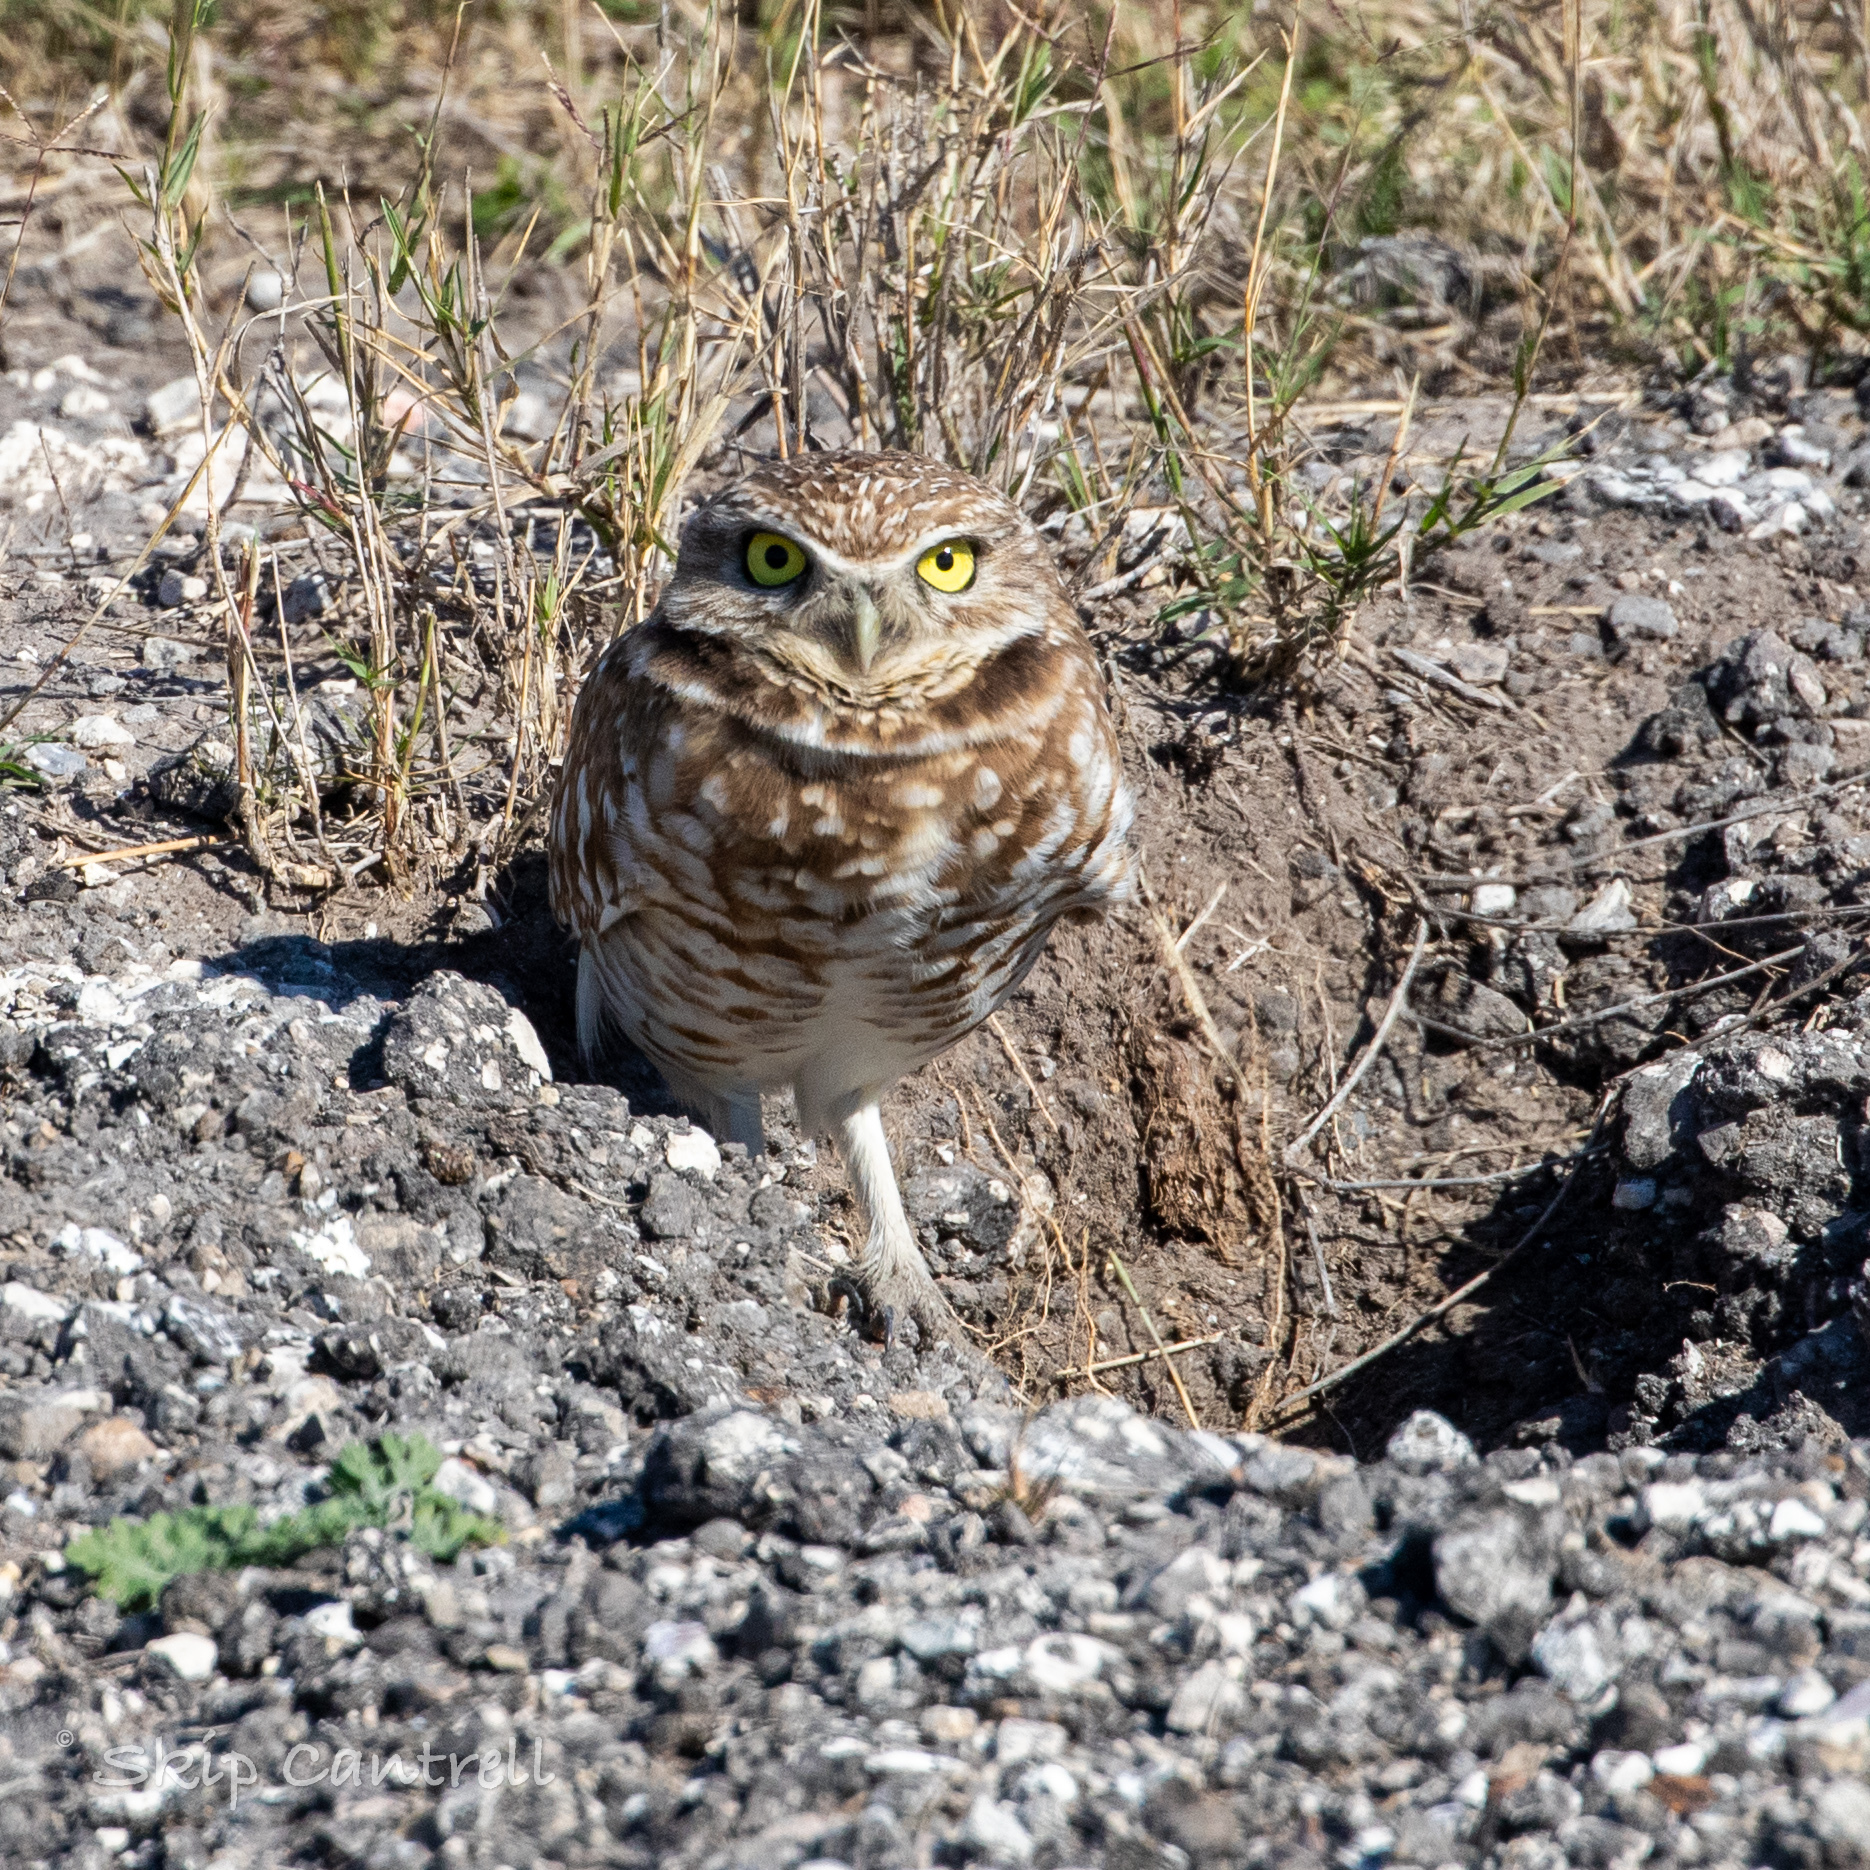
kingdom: Animalia
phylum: Chordata
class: Aves
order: Strigiformes
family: Strigidae
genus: Athene
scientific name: Athene cunicularia
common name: Burrowing owl
